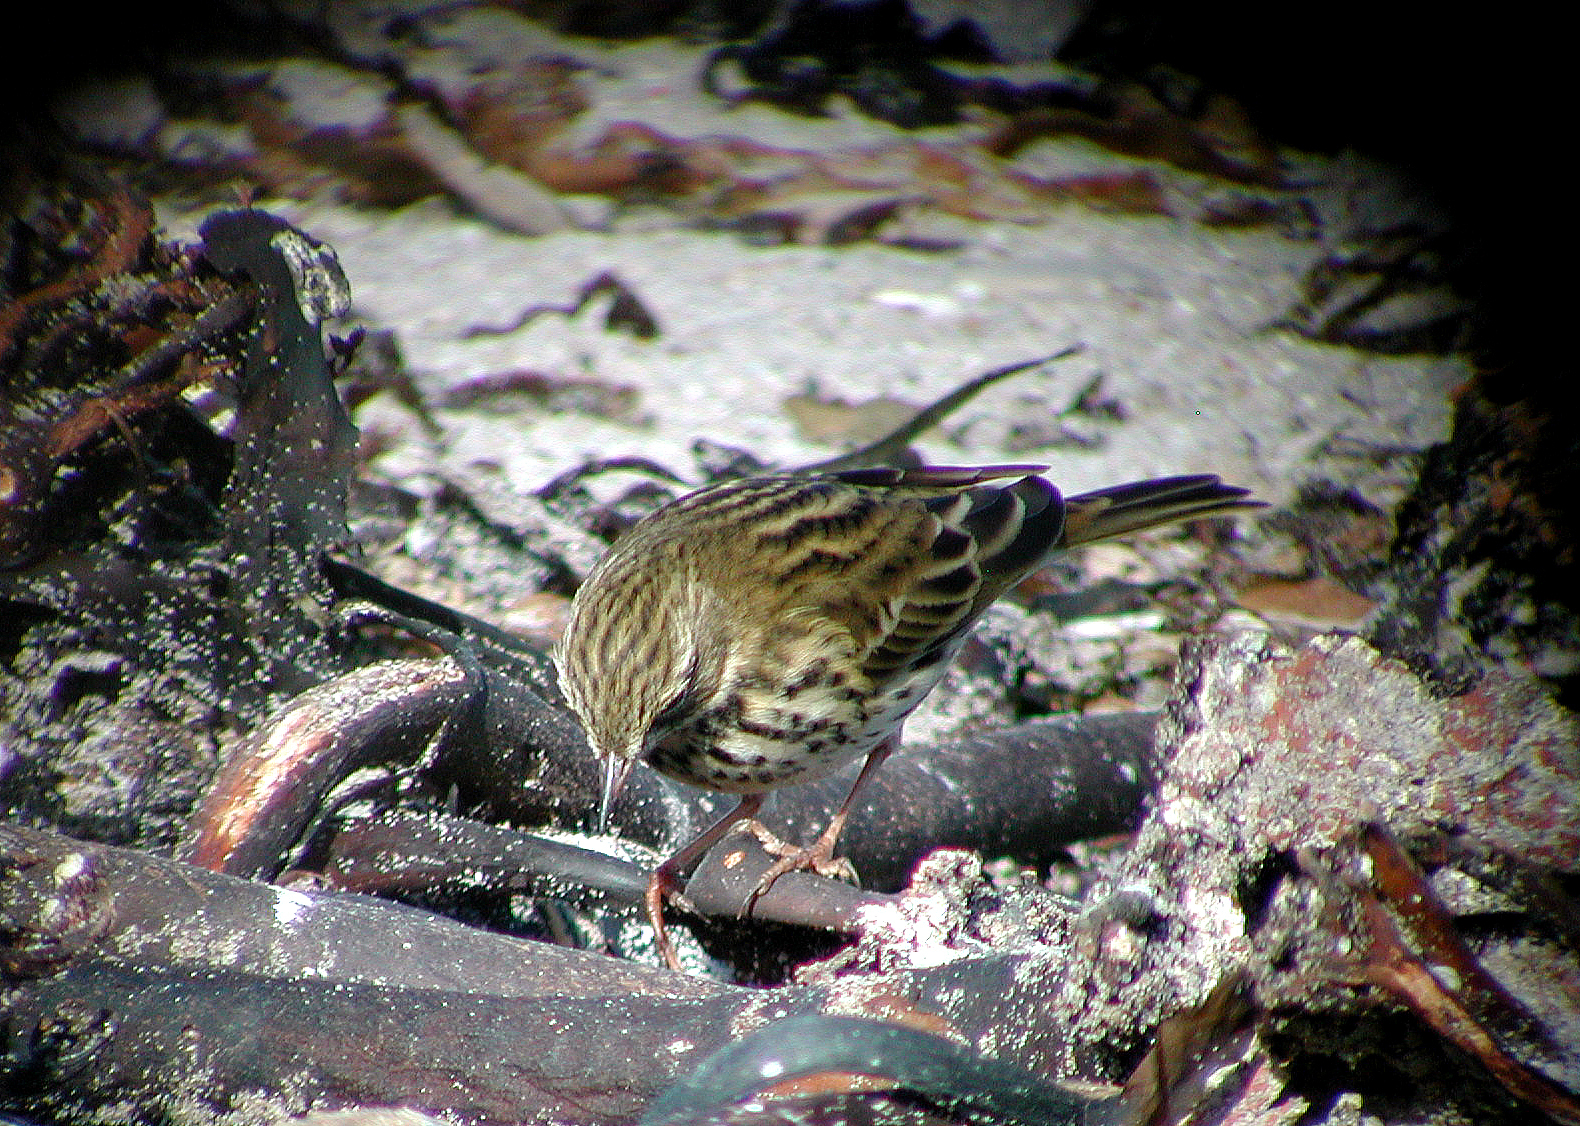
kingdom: Animalia
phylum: Chordata
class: Aves
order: Passeriformes
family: Motacillidae
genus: Anthus
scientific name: Anthus pratensis
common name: Meadow pipit
